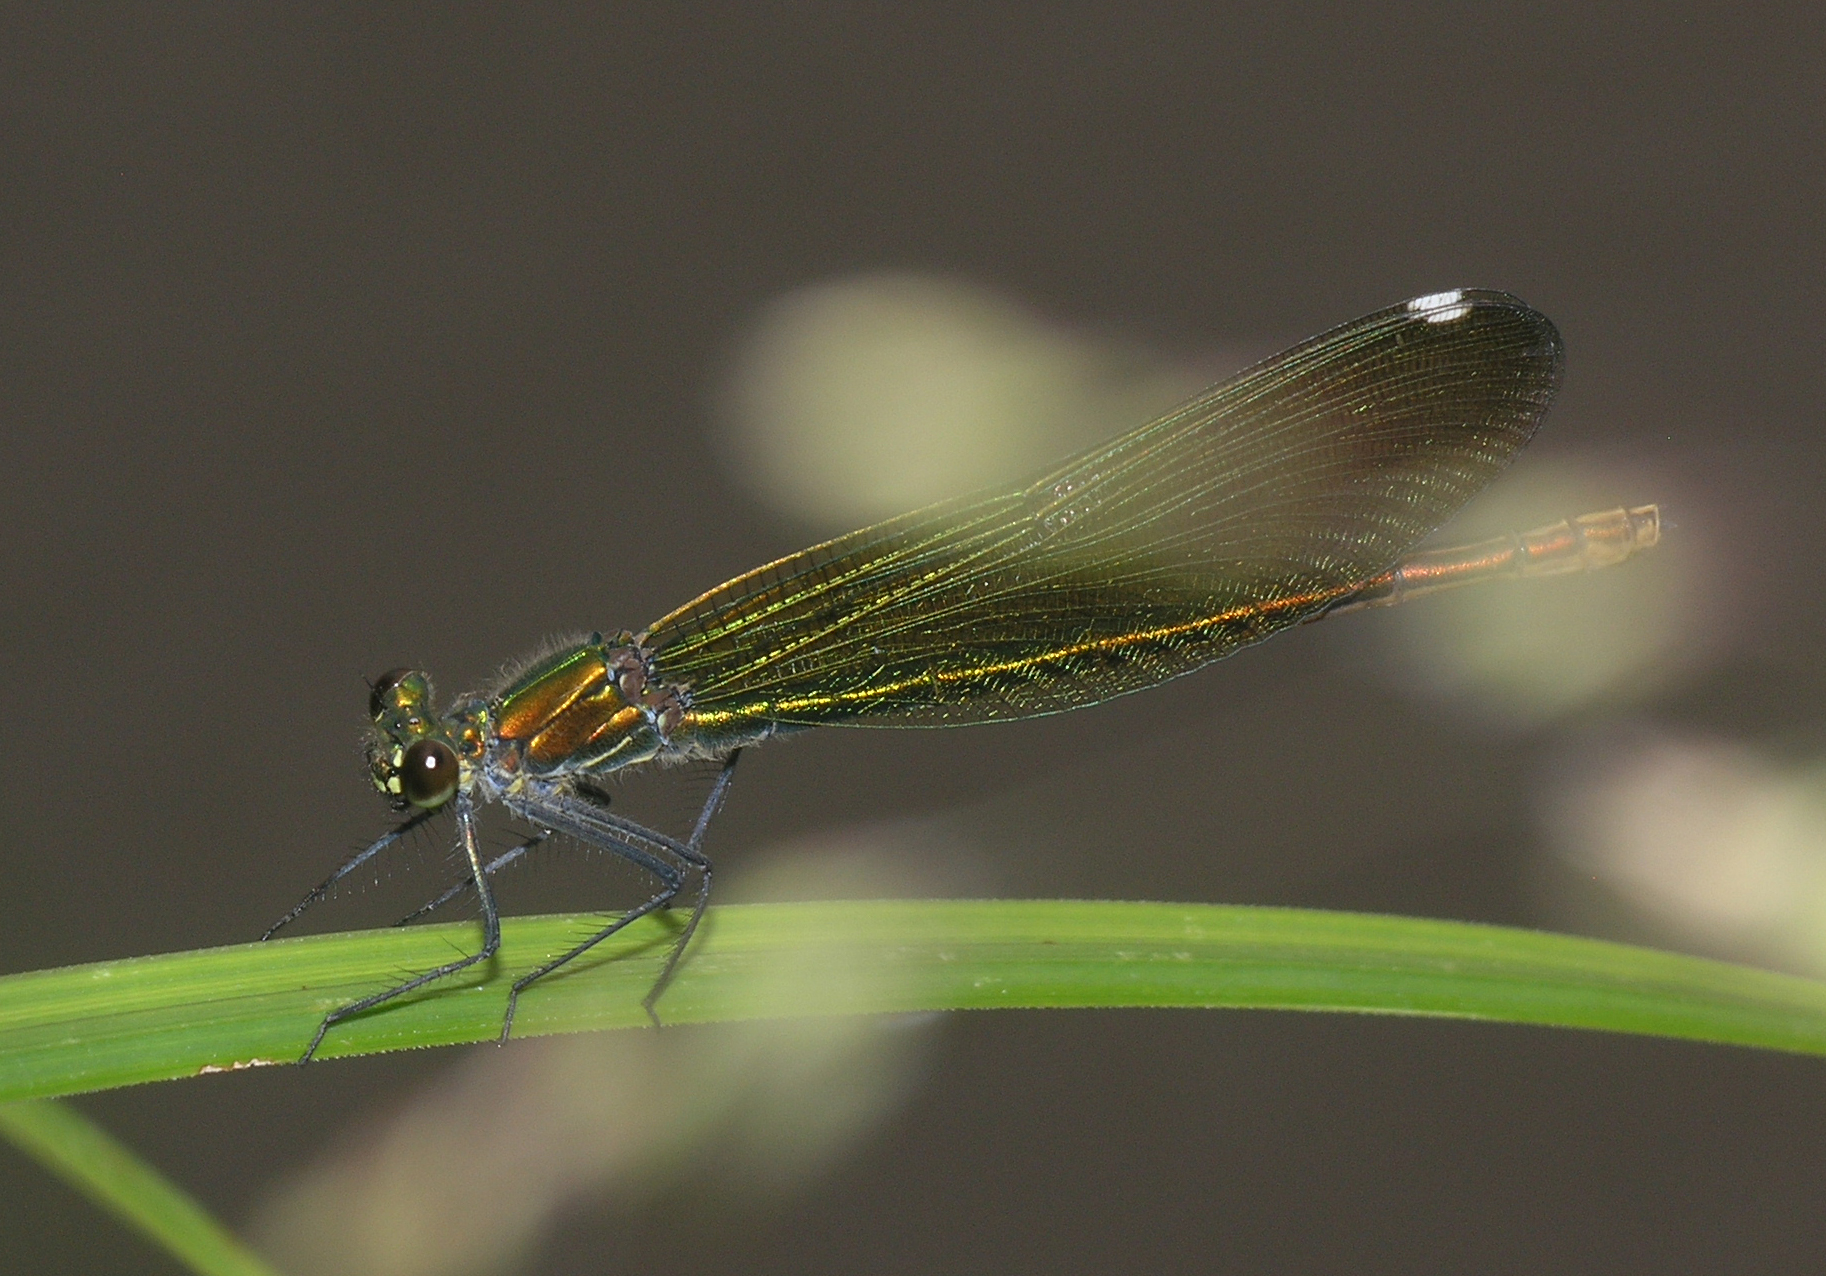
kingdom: Animalia
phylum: Arthropoda
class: Insecta
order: Odonata
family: Calopterygidae
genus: Calopteryx
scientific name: Calopteryx splendens
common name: Banded demoiselle
